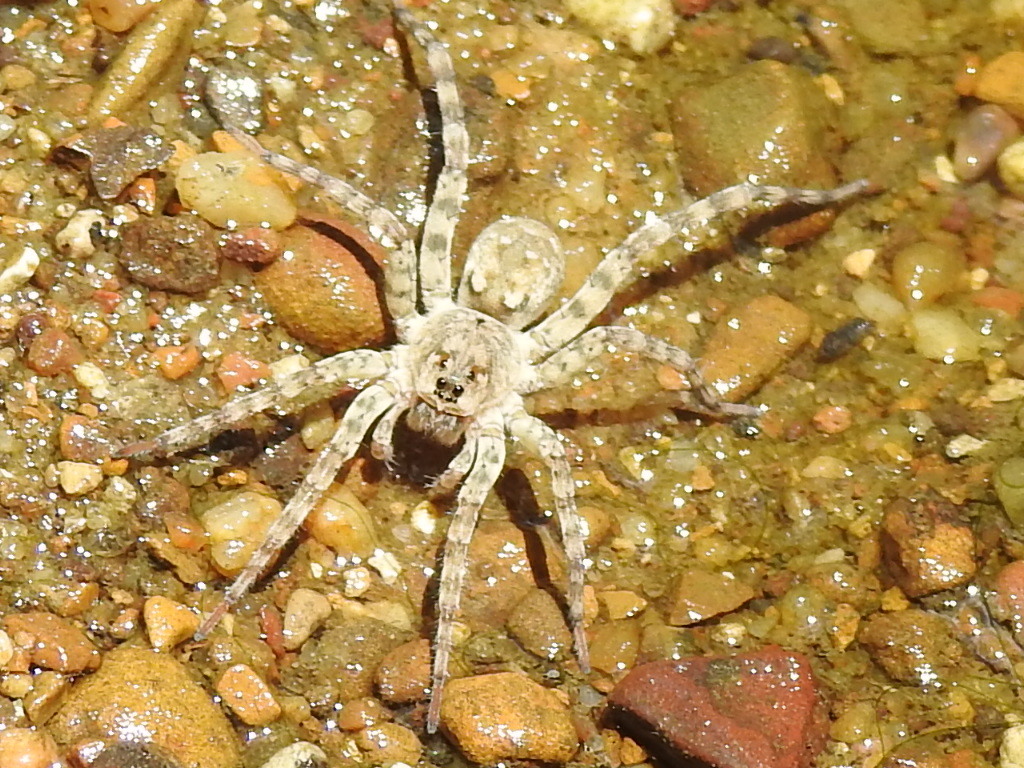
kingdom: Animalia
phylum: Arthropoda
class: Arachnida
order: Araneae
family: Lycosidae
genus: Arctosa
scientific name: Arctosa littoralis
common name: Wolf spiders
